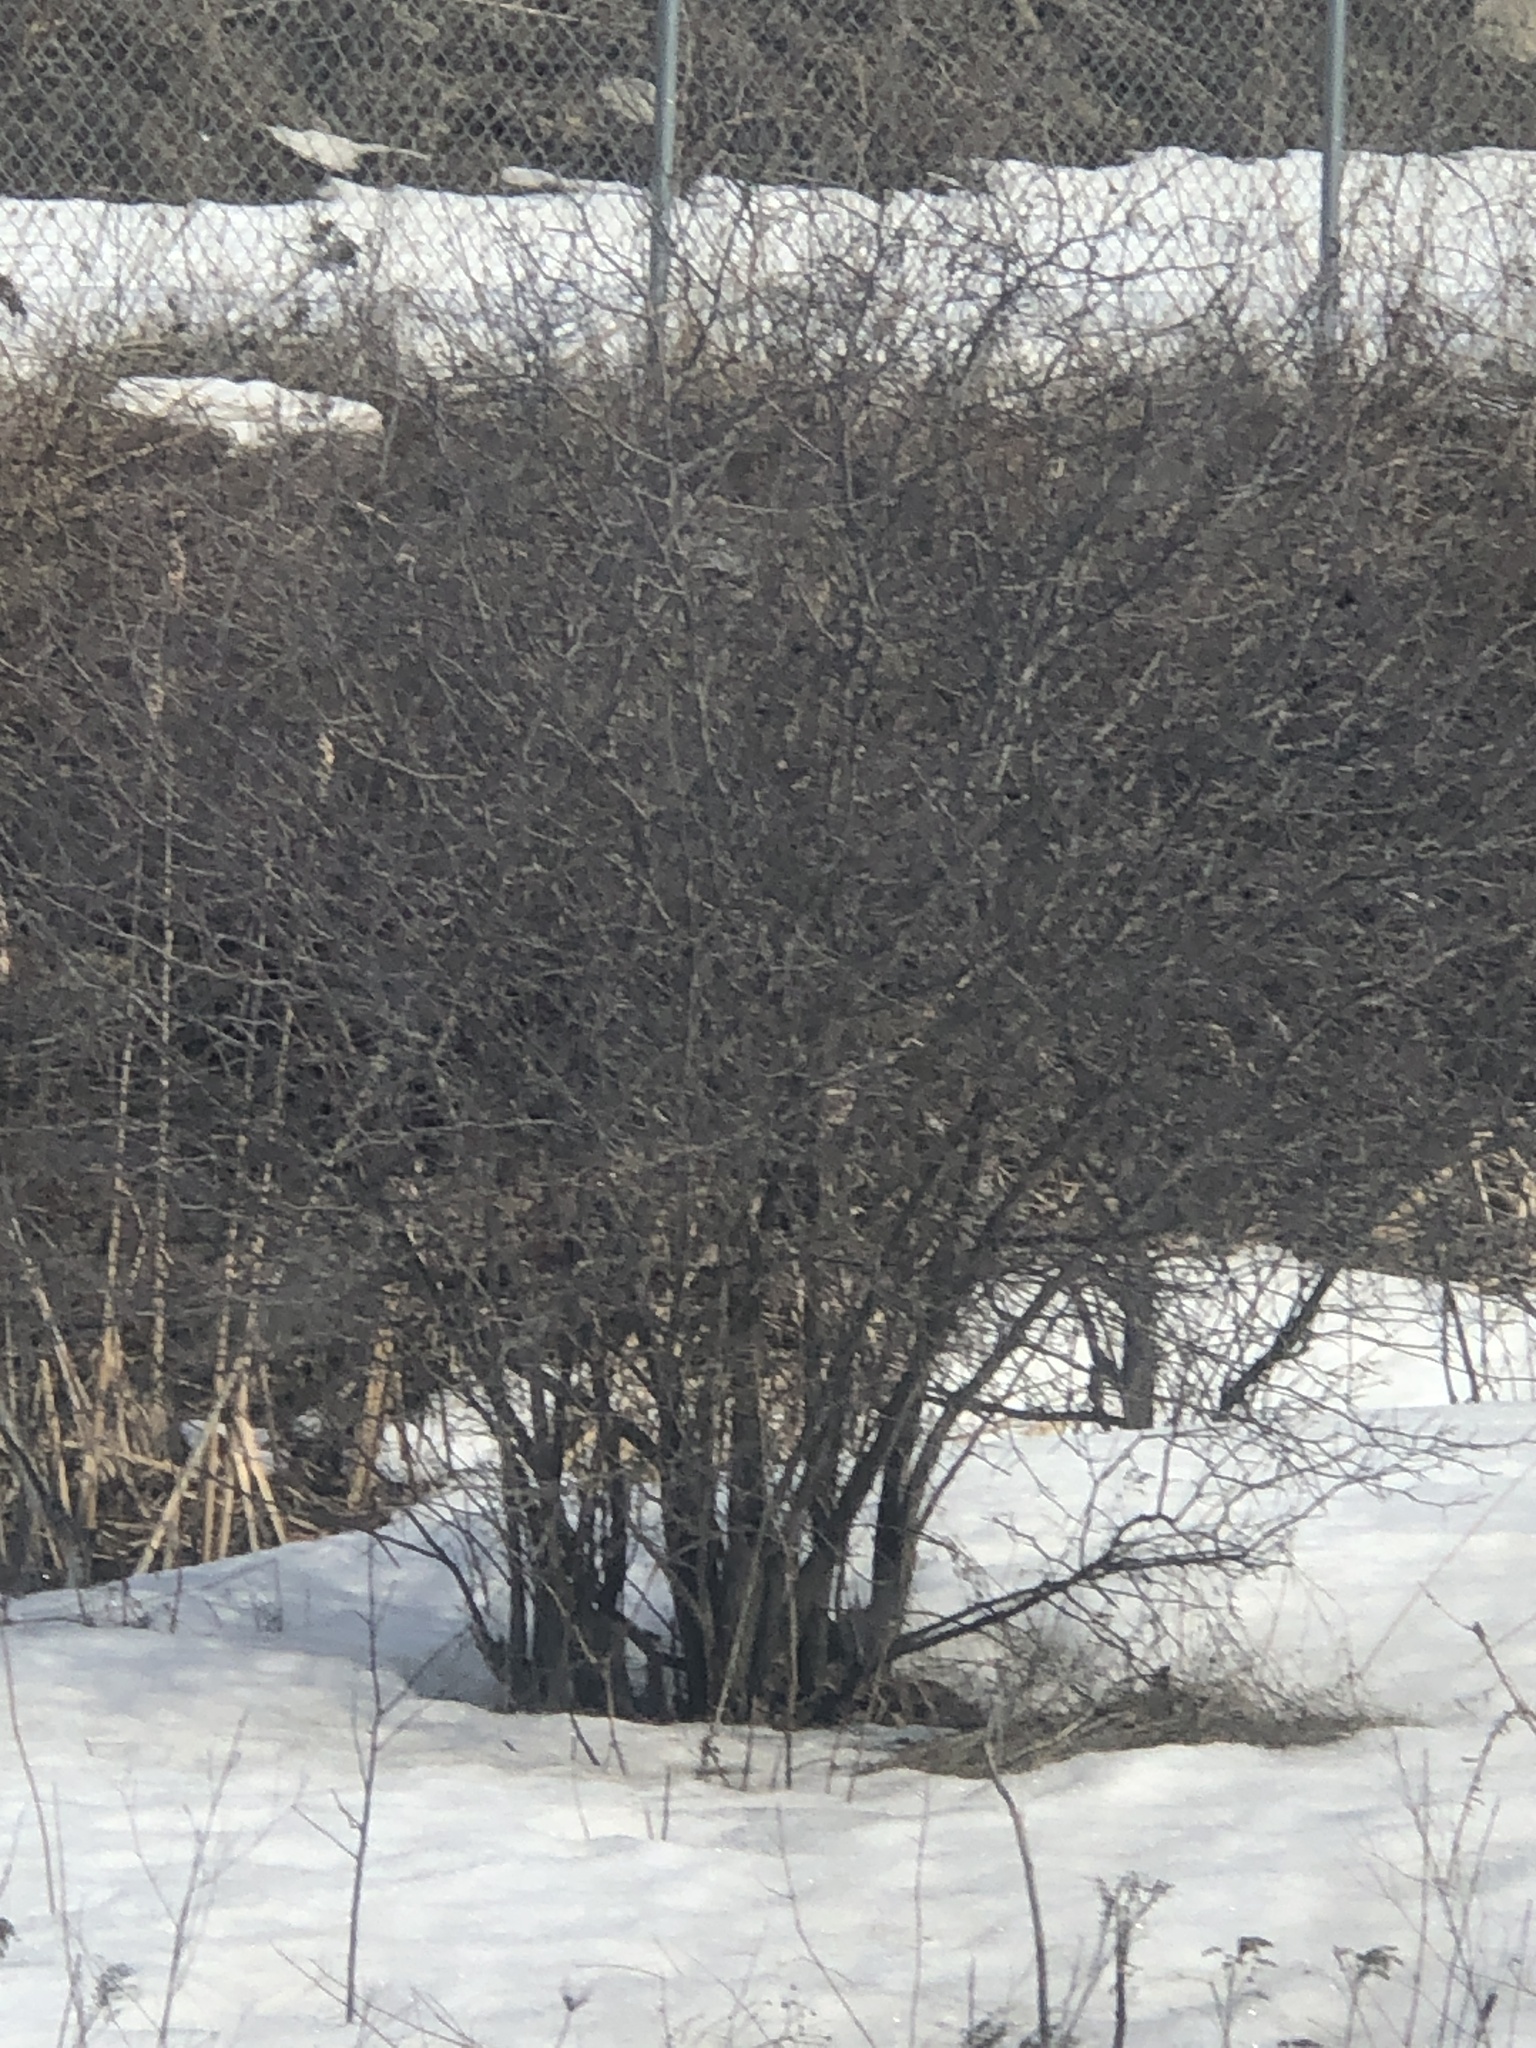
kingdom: Plantae
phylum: Tracheophyta
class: Magnoliopsida
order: Rosales
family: Rhamnaceae
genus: Rhamnus
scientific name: Rhamnus cathartica
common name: Common buckthorn
